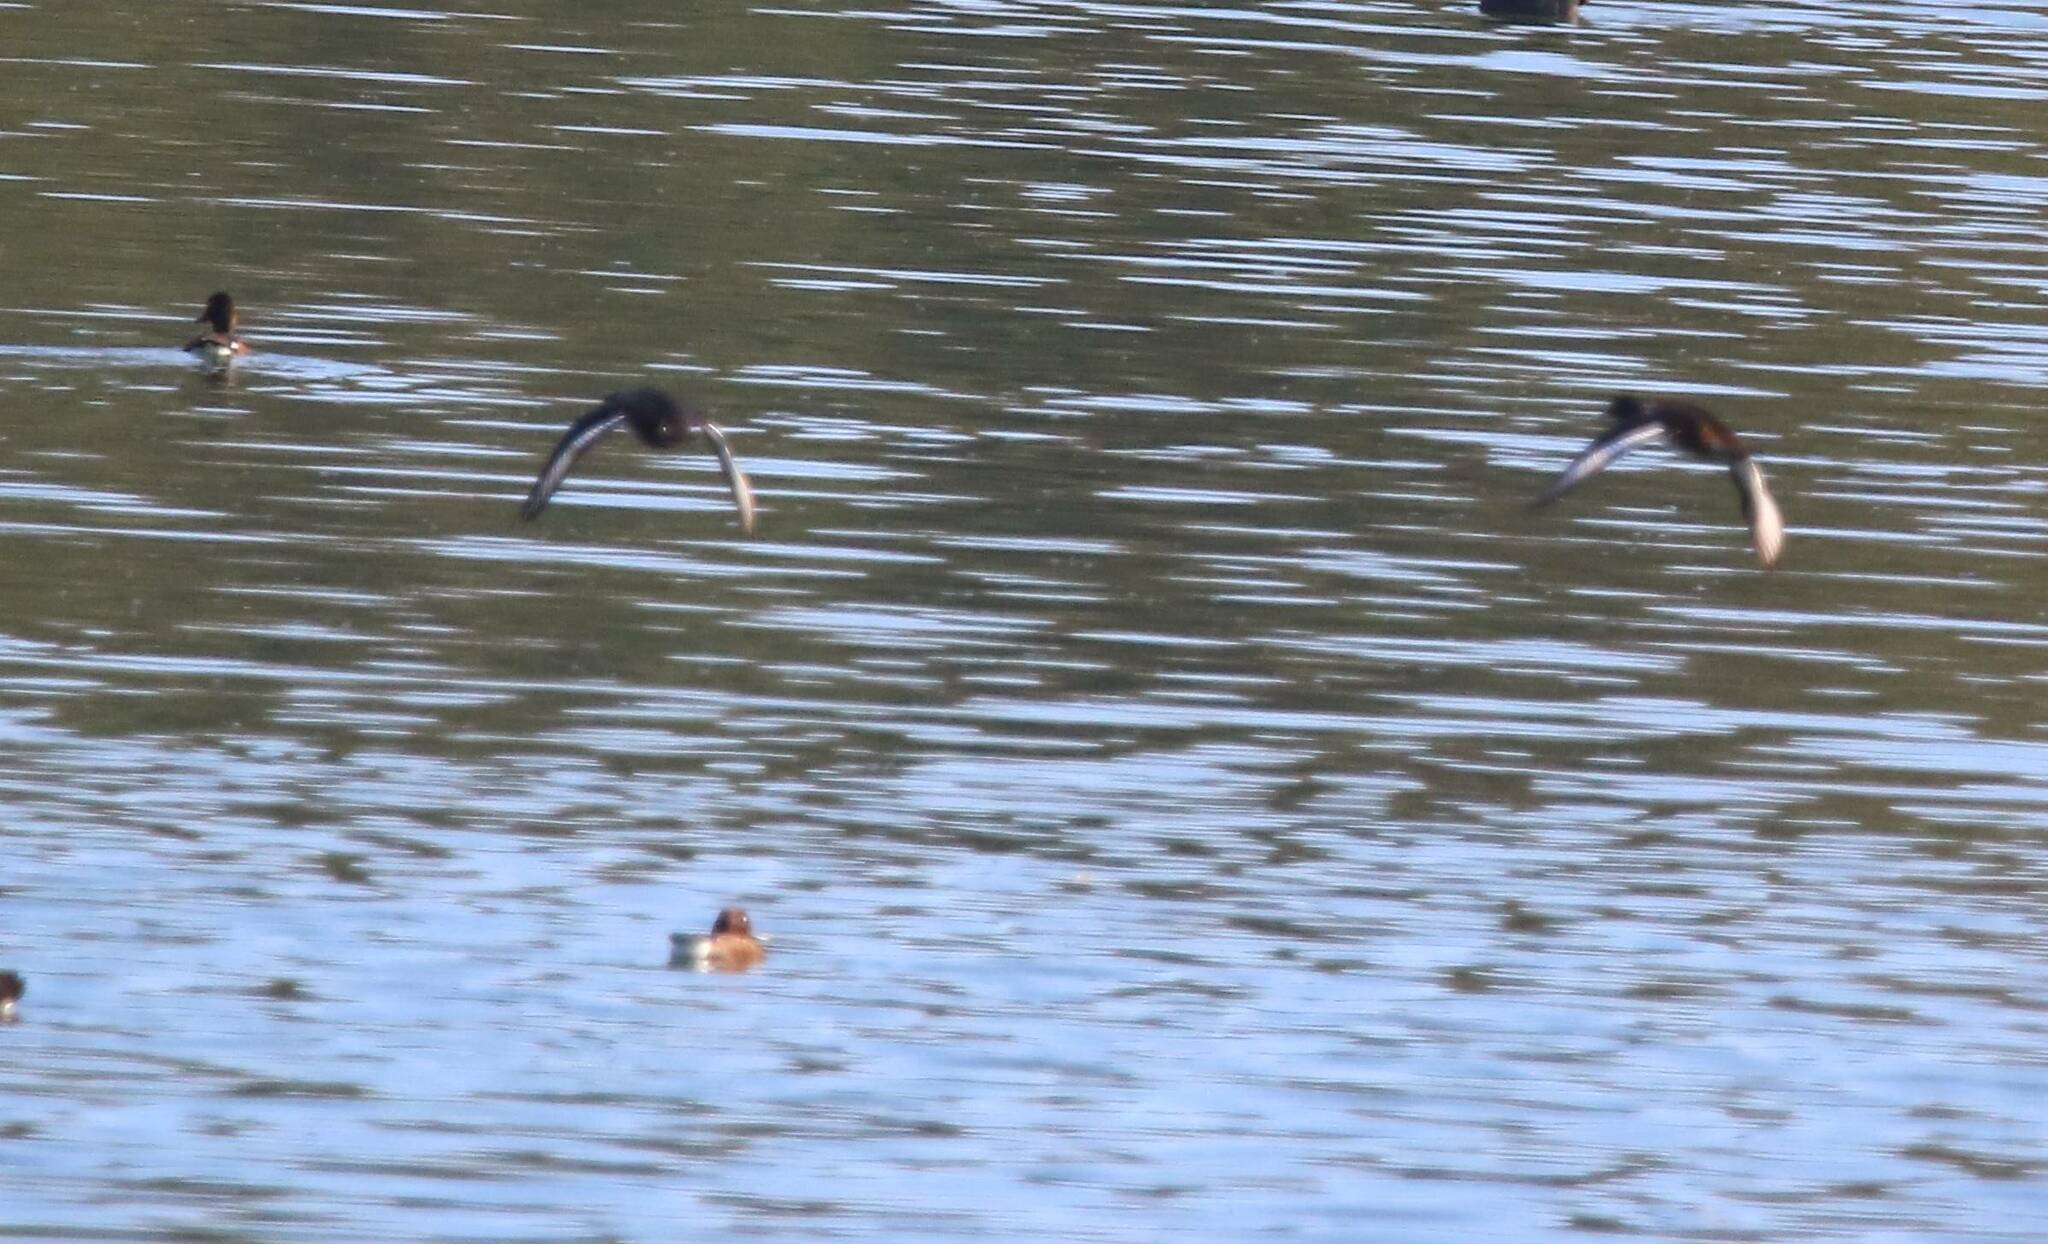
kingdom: Animalia
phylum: Chordata
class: Aves
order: Anseriformes
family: Anatidae
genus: Aythya
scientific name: Aythya nyroca
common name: Ferruginous duck
